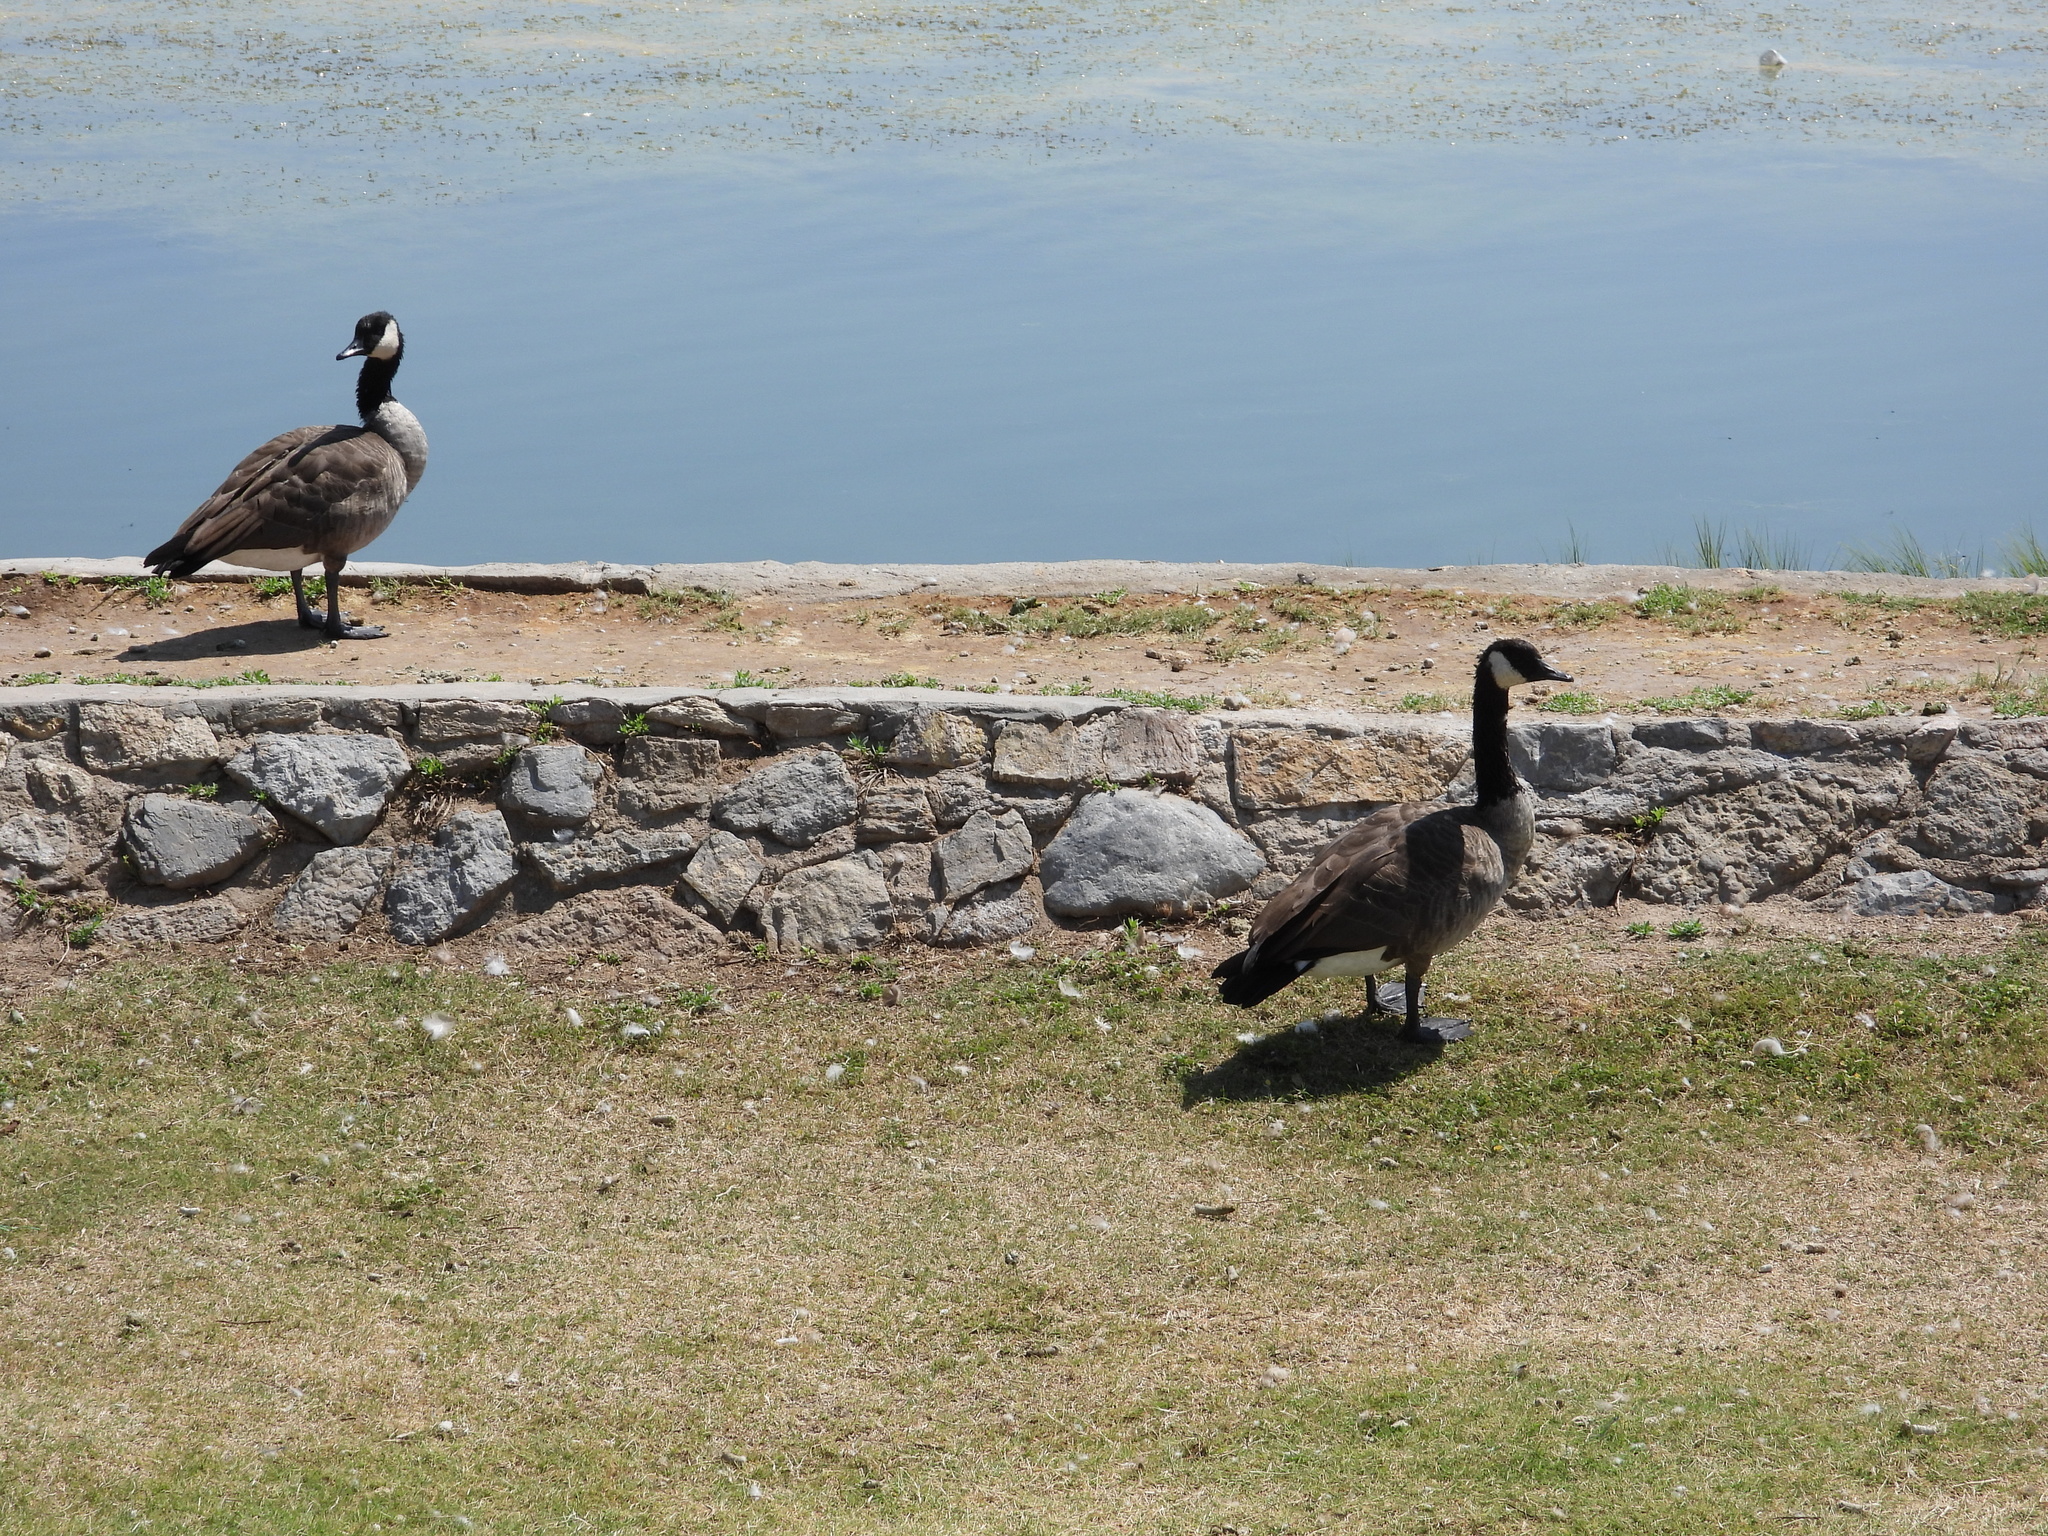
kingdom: Animalia
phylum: Chordata
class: Aves
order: Anseriformes
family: Anatidae
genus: Branta
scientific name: Branta canadensis
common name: Canada goose
